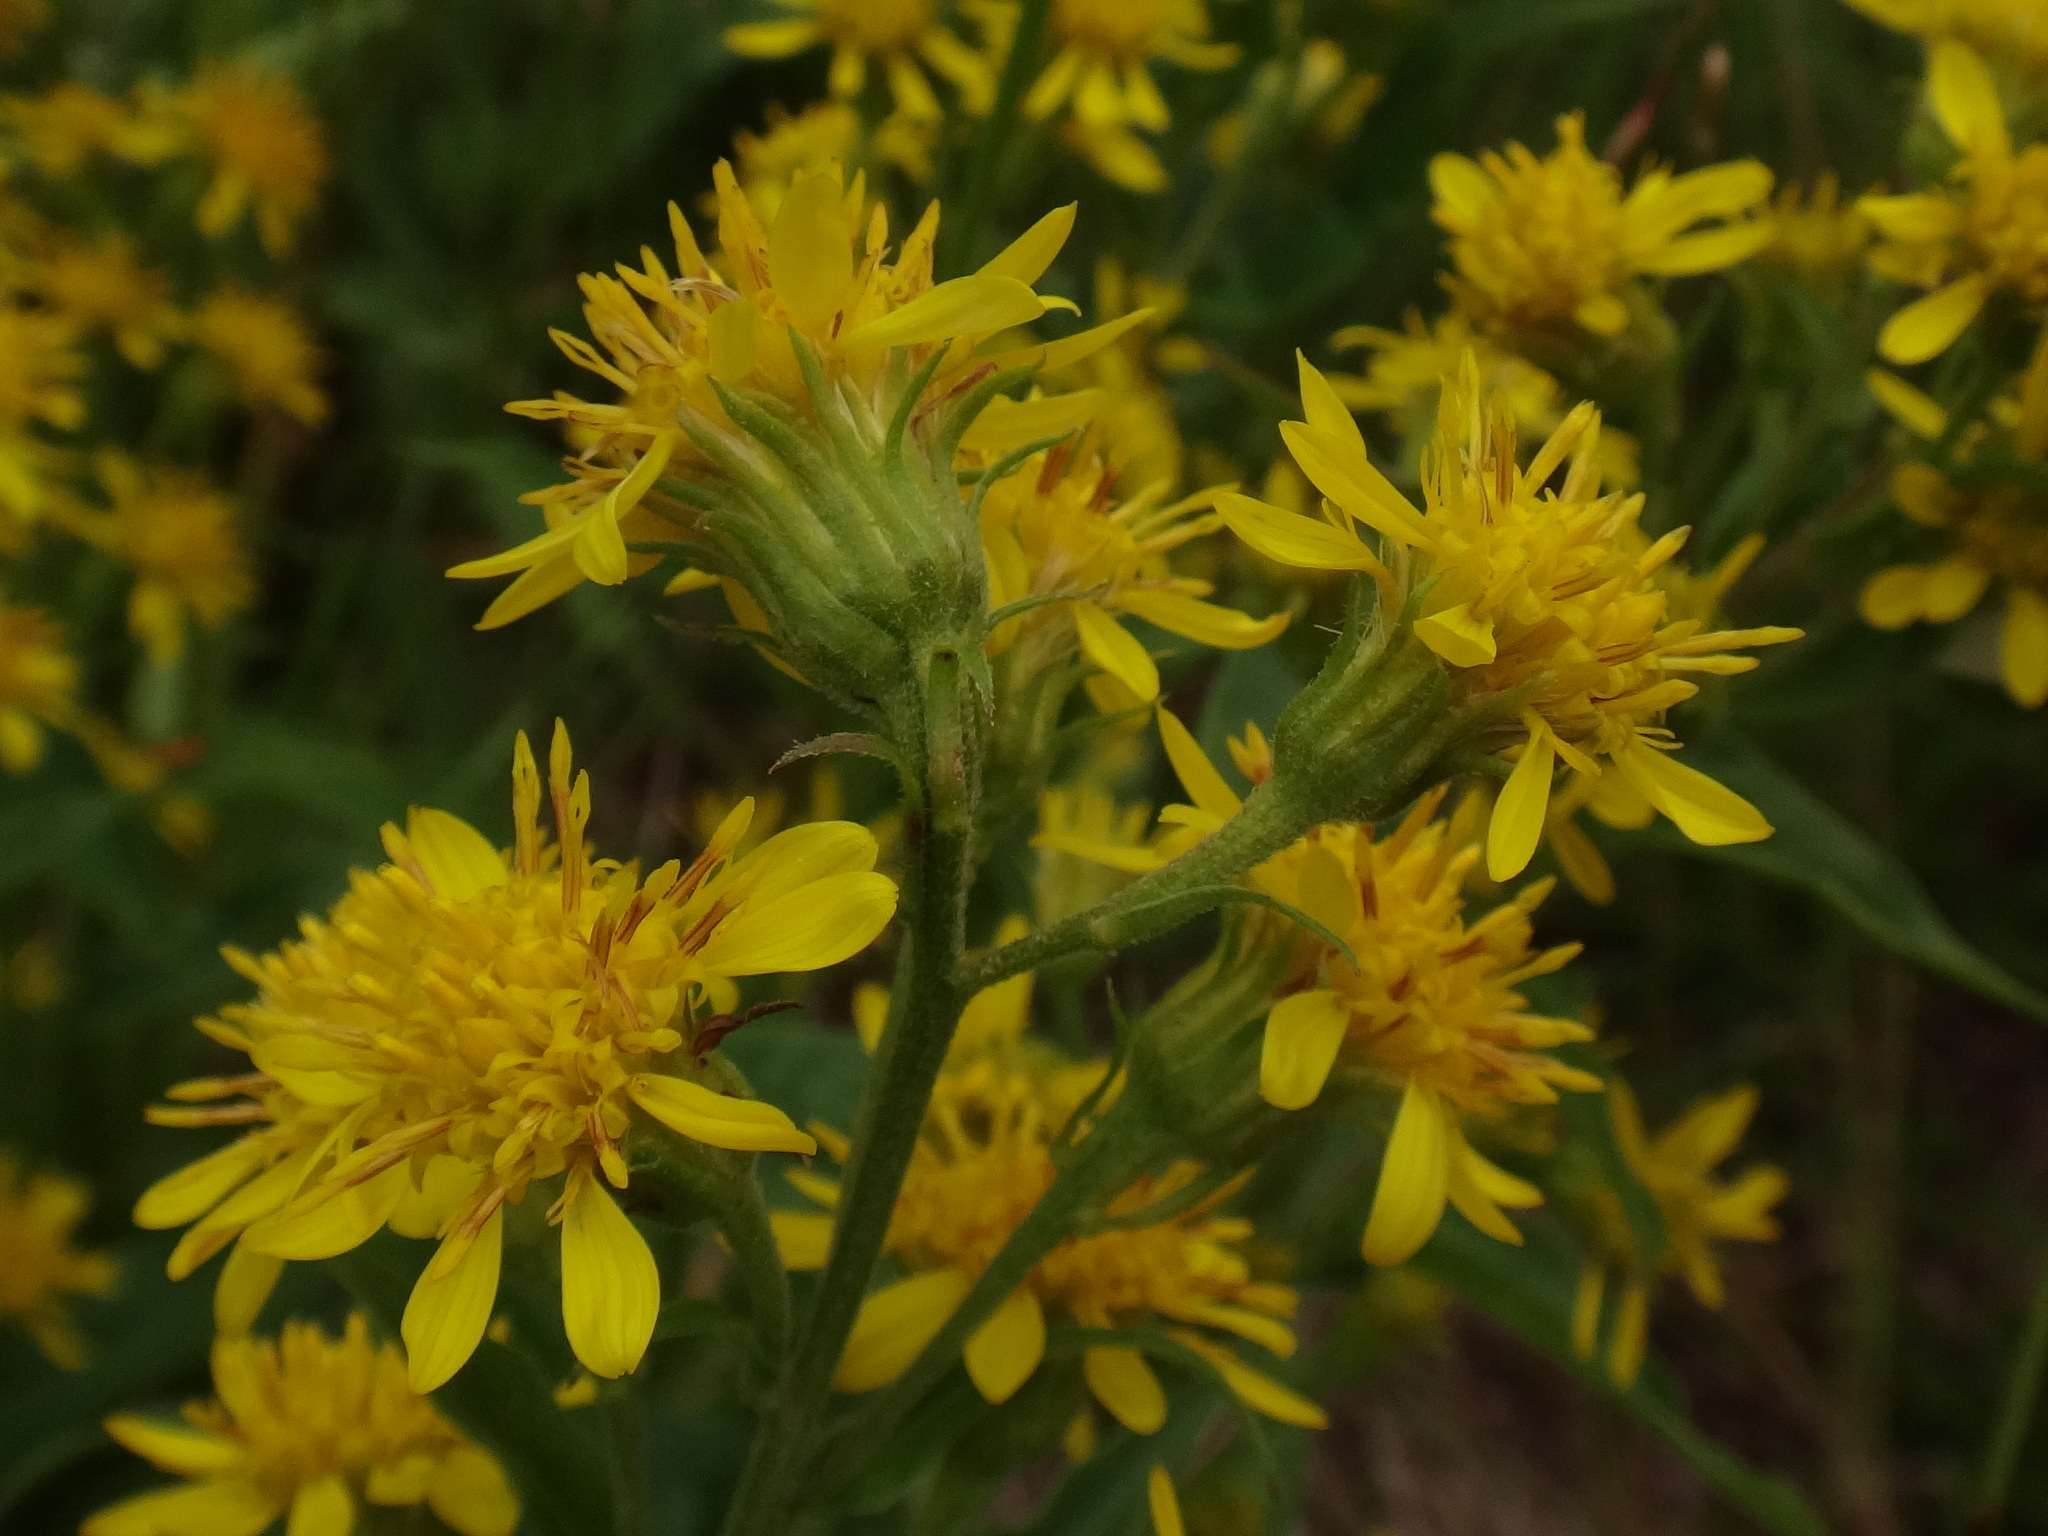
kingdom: Plantae
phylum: Tracheophyta
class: Magnoliopsida
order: Asterales
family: Asteraceae
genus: Solidago
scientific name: Solidago virgaurea
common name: Goldenrod
